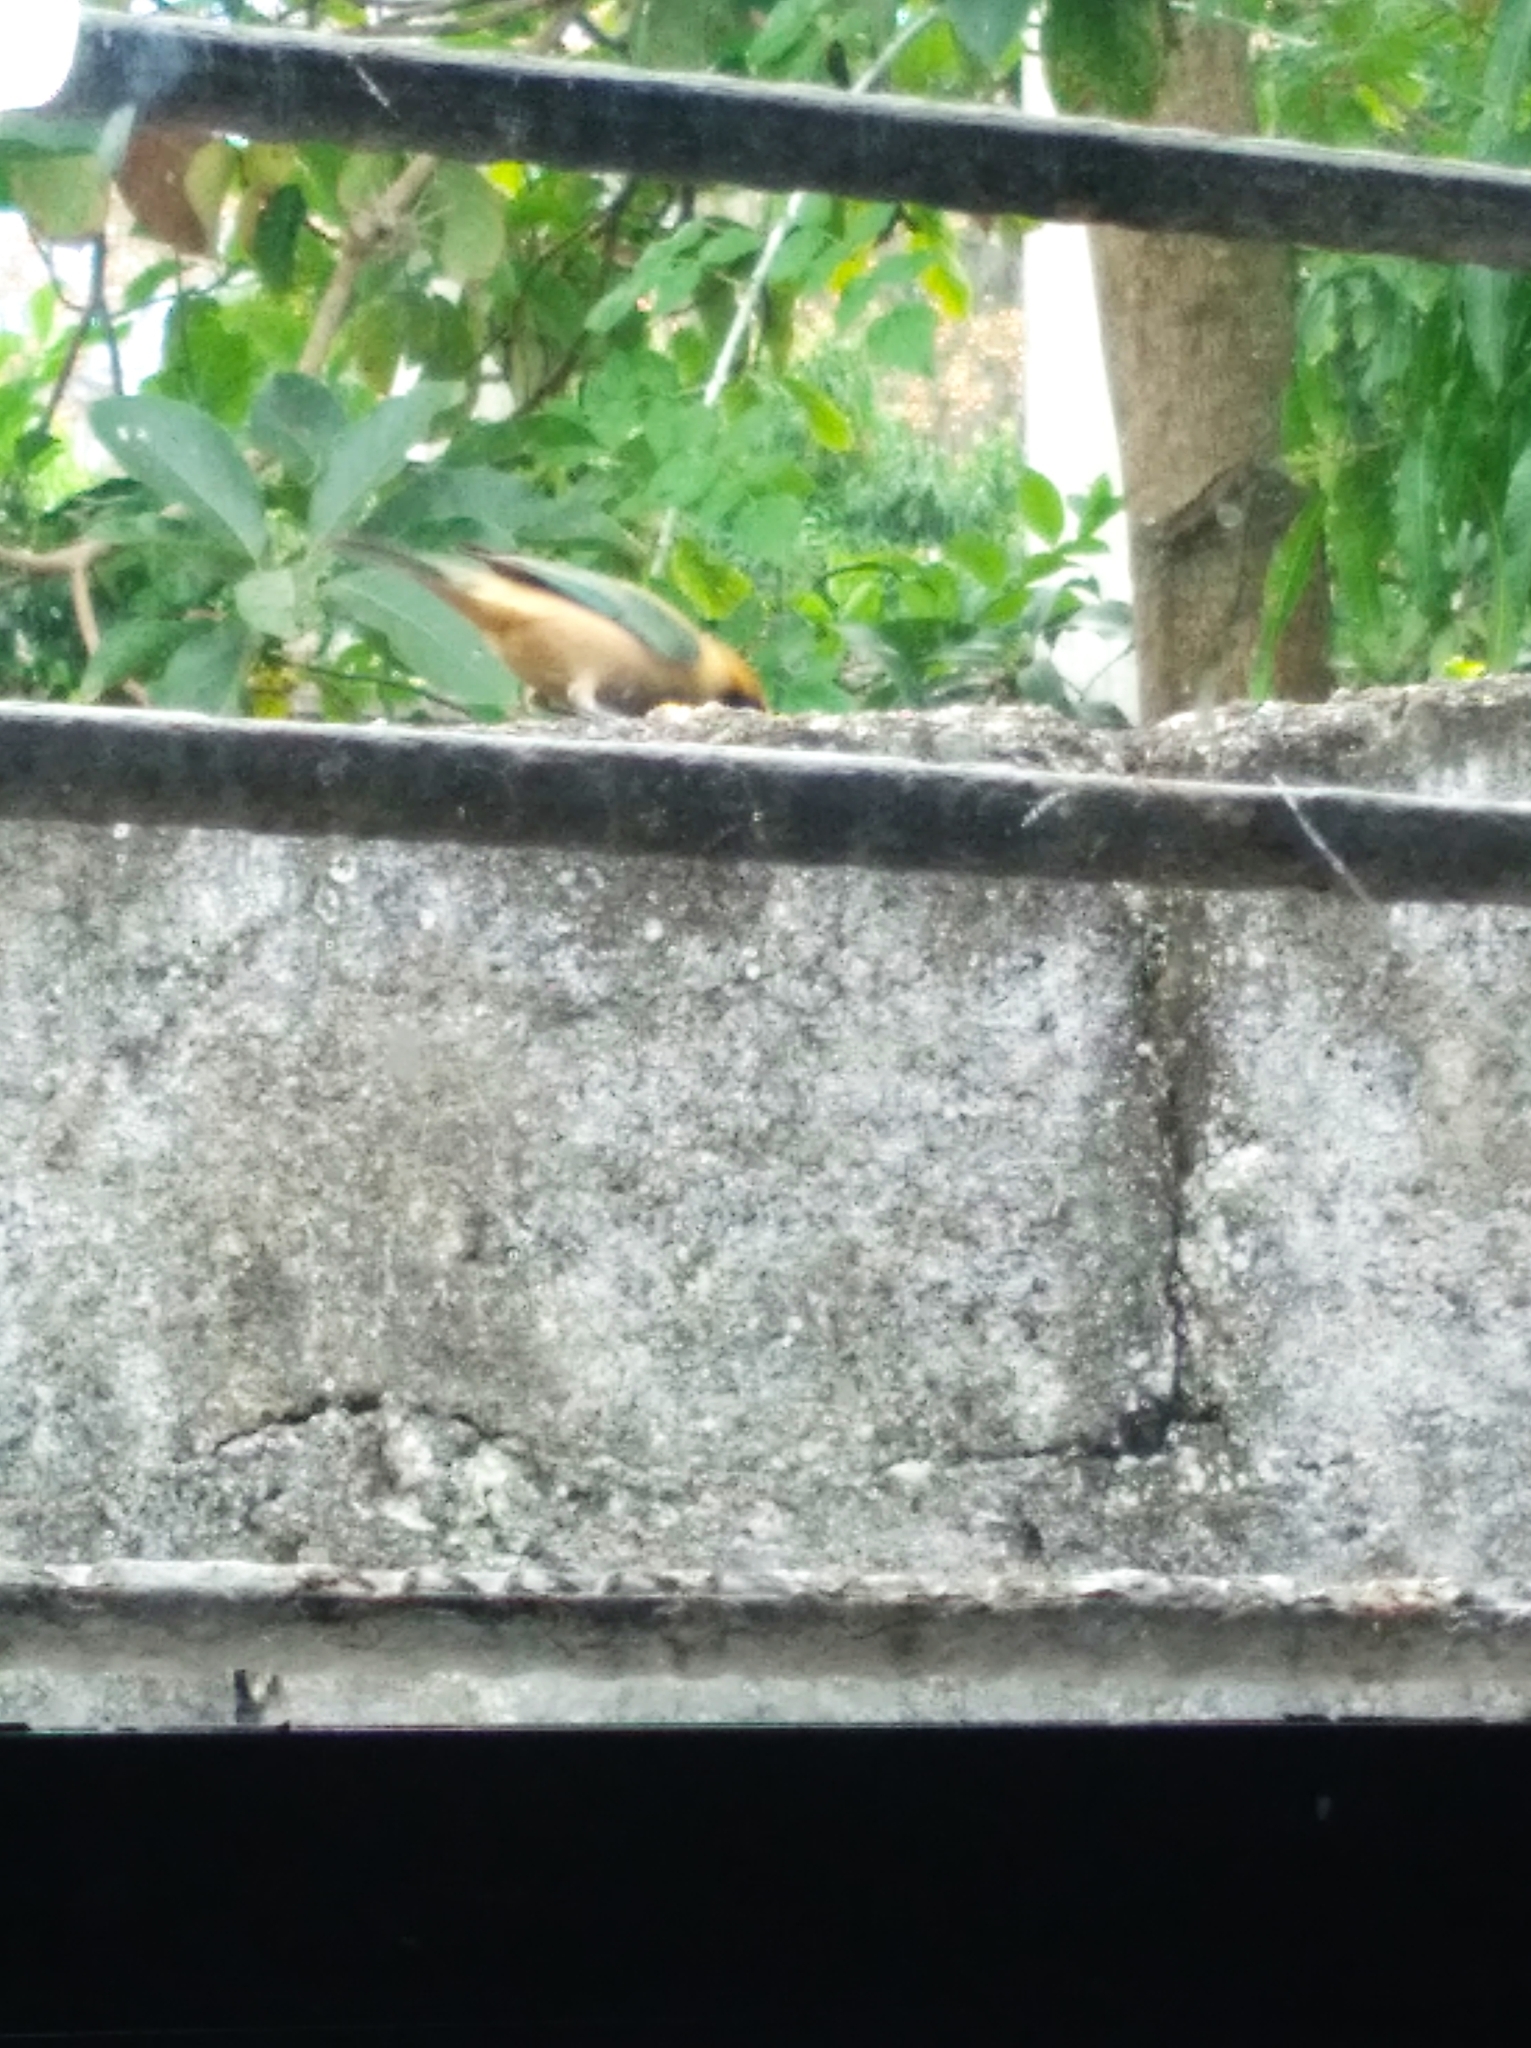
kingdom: Animalia
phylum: Chordata
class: Aves
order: Passeriformes
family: Thraupidae
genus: Stilpnia
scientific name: Stilpnia cayana
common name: Burnished-buff tanager
